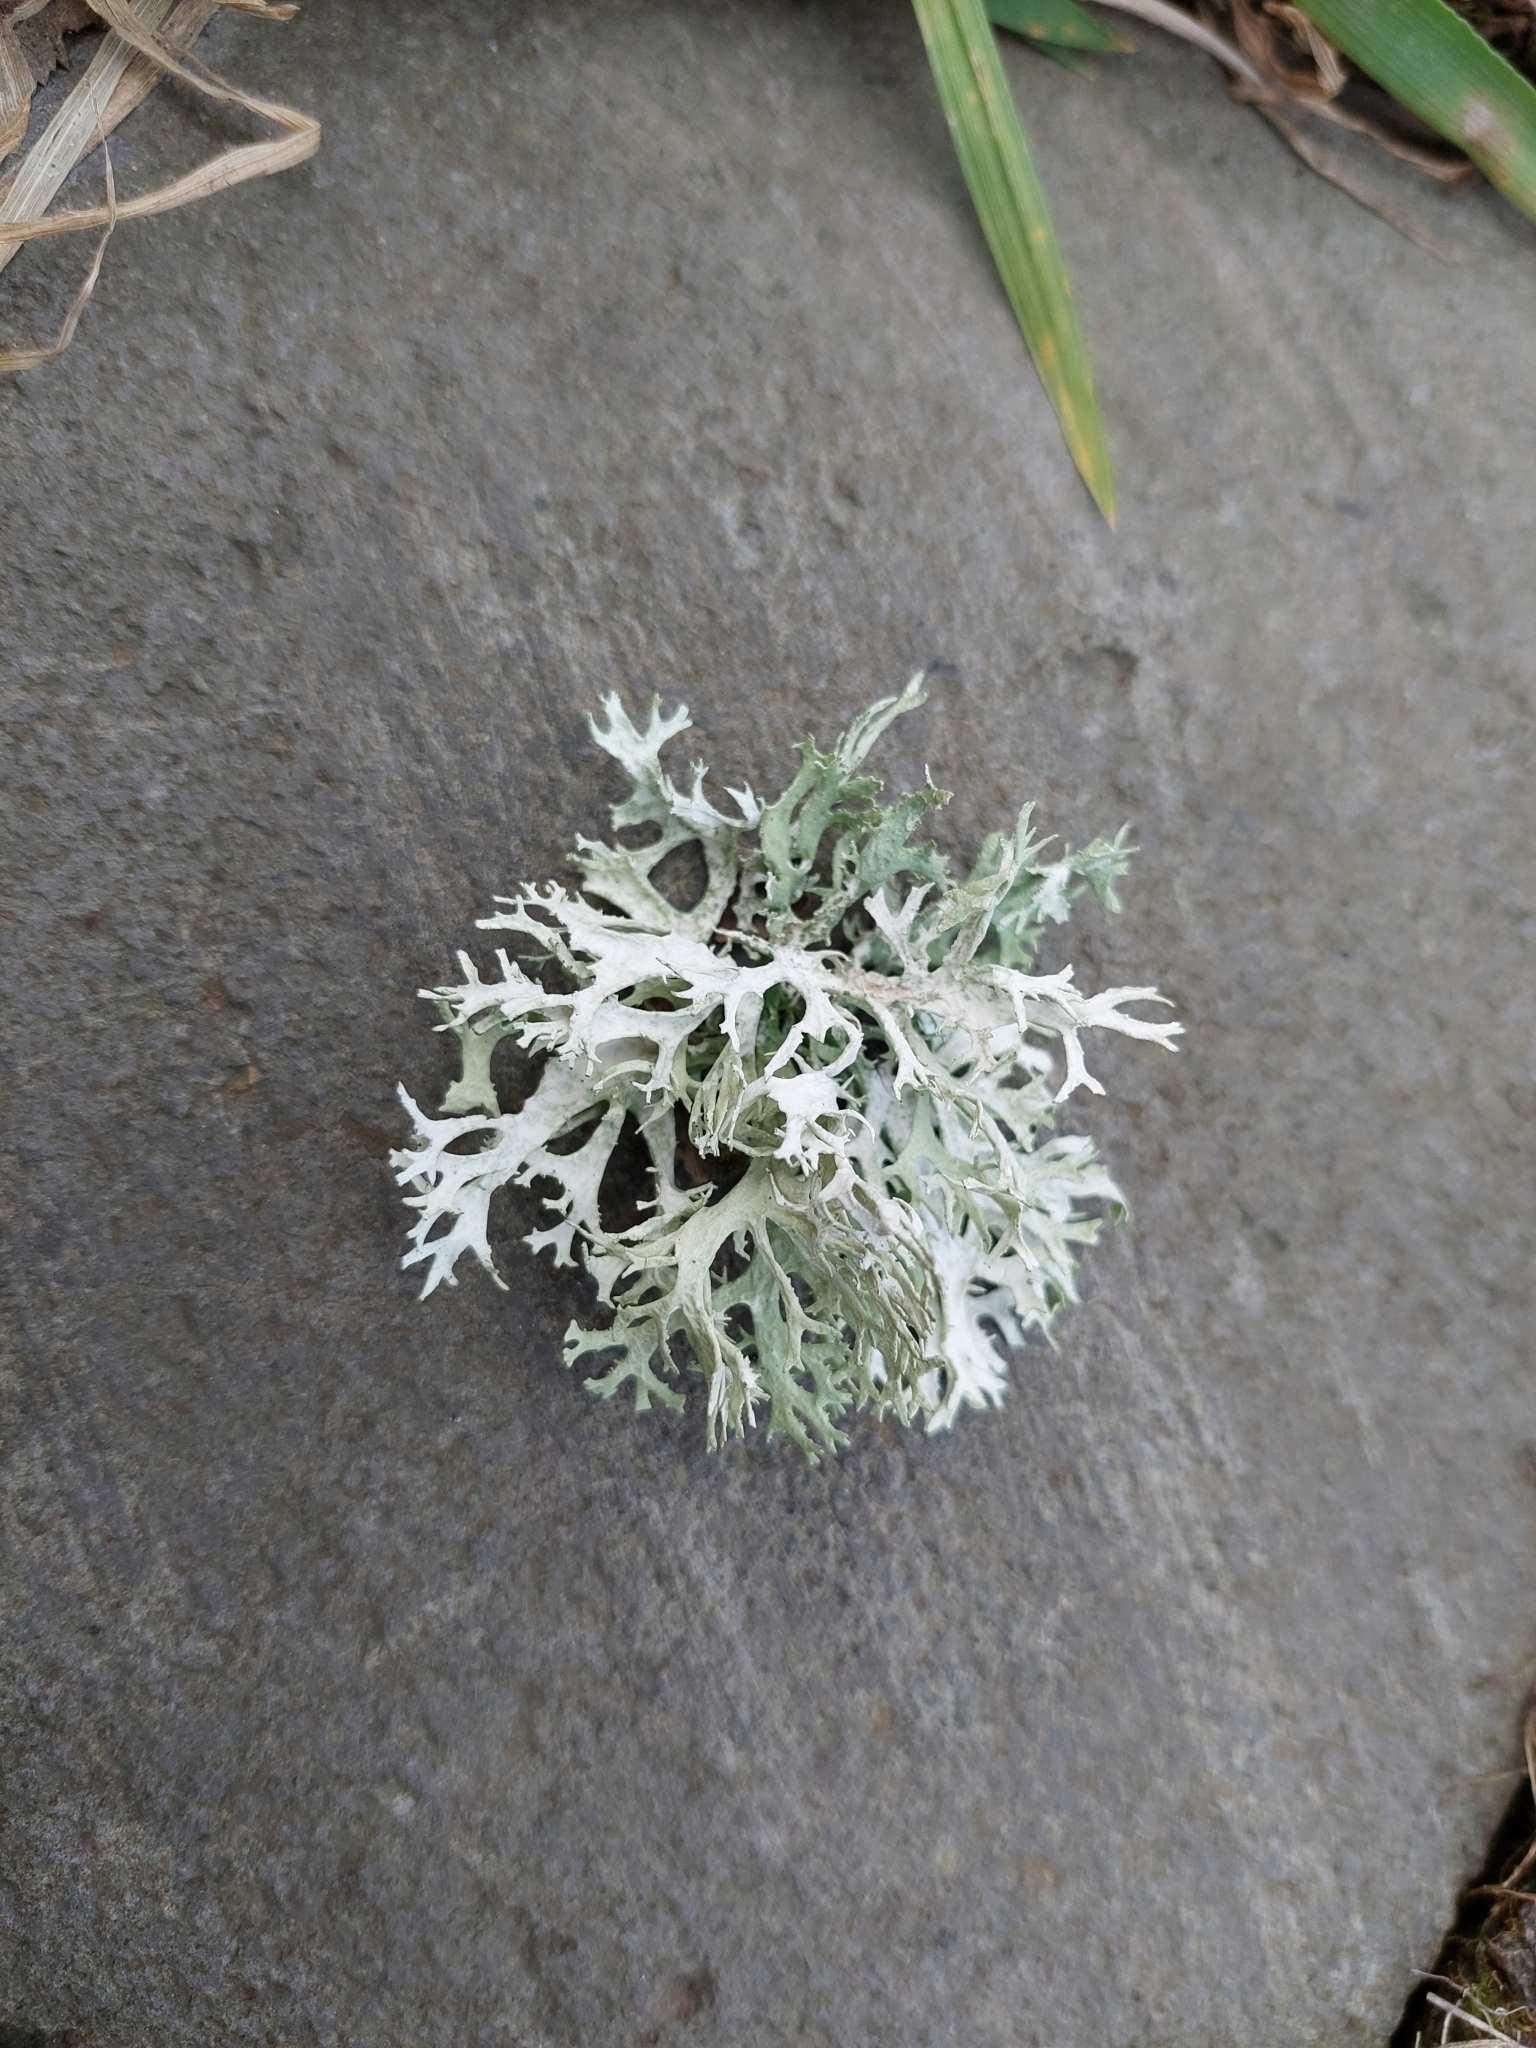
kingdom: Fungi
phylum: Ascomycota
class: Lecanoromycetes
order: Lecanorales
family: Parmeliaceae
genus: Evernia
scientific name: Evernia prunastri
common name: Oak moss
